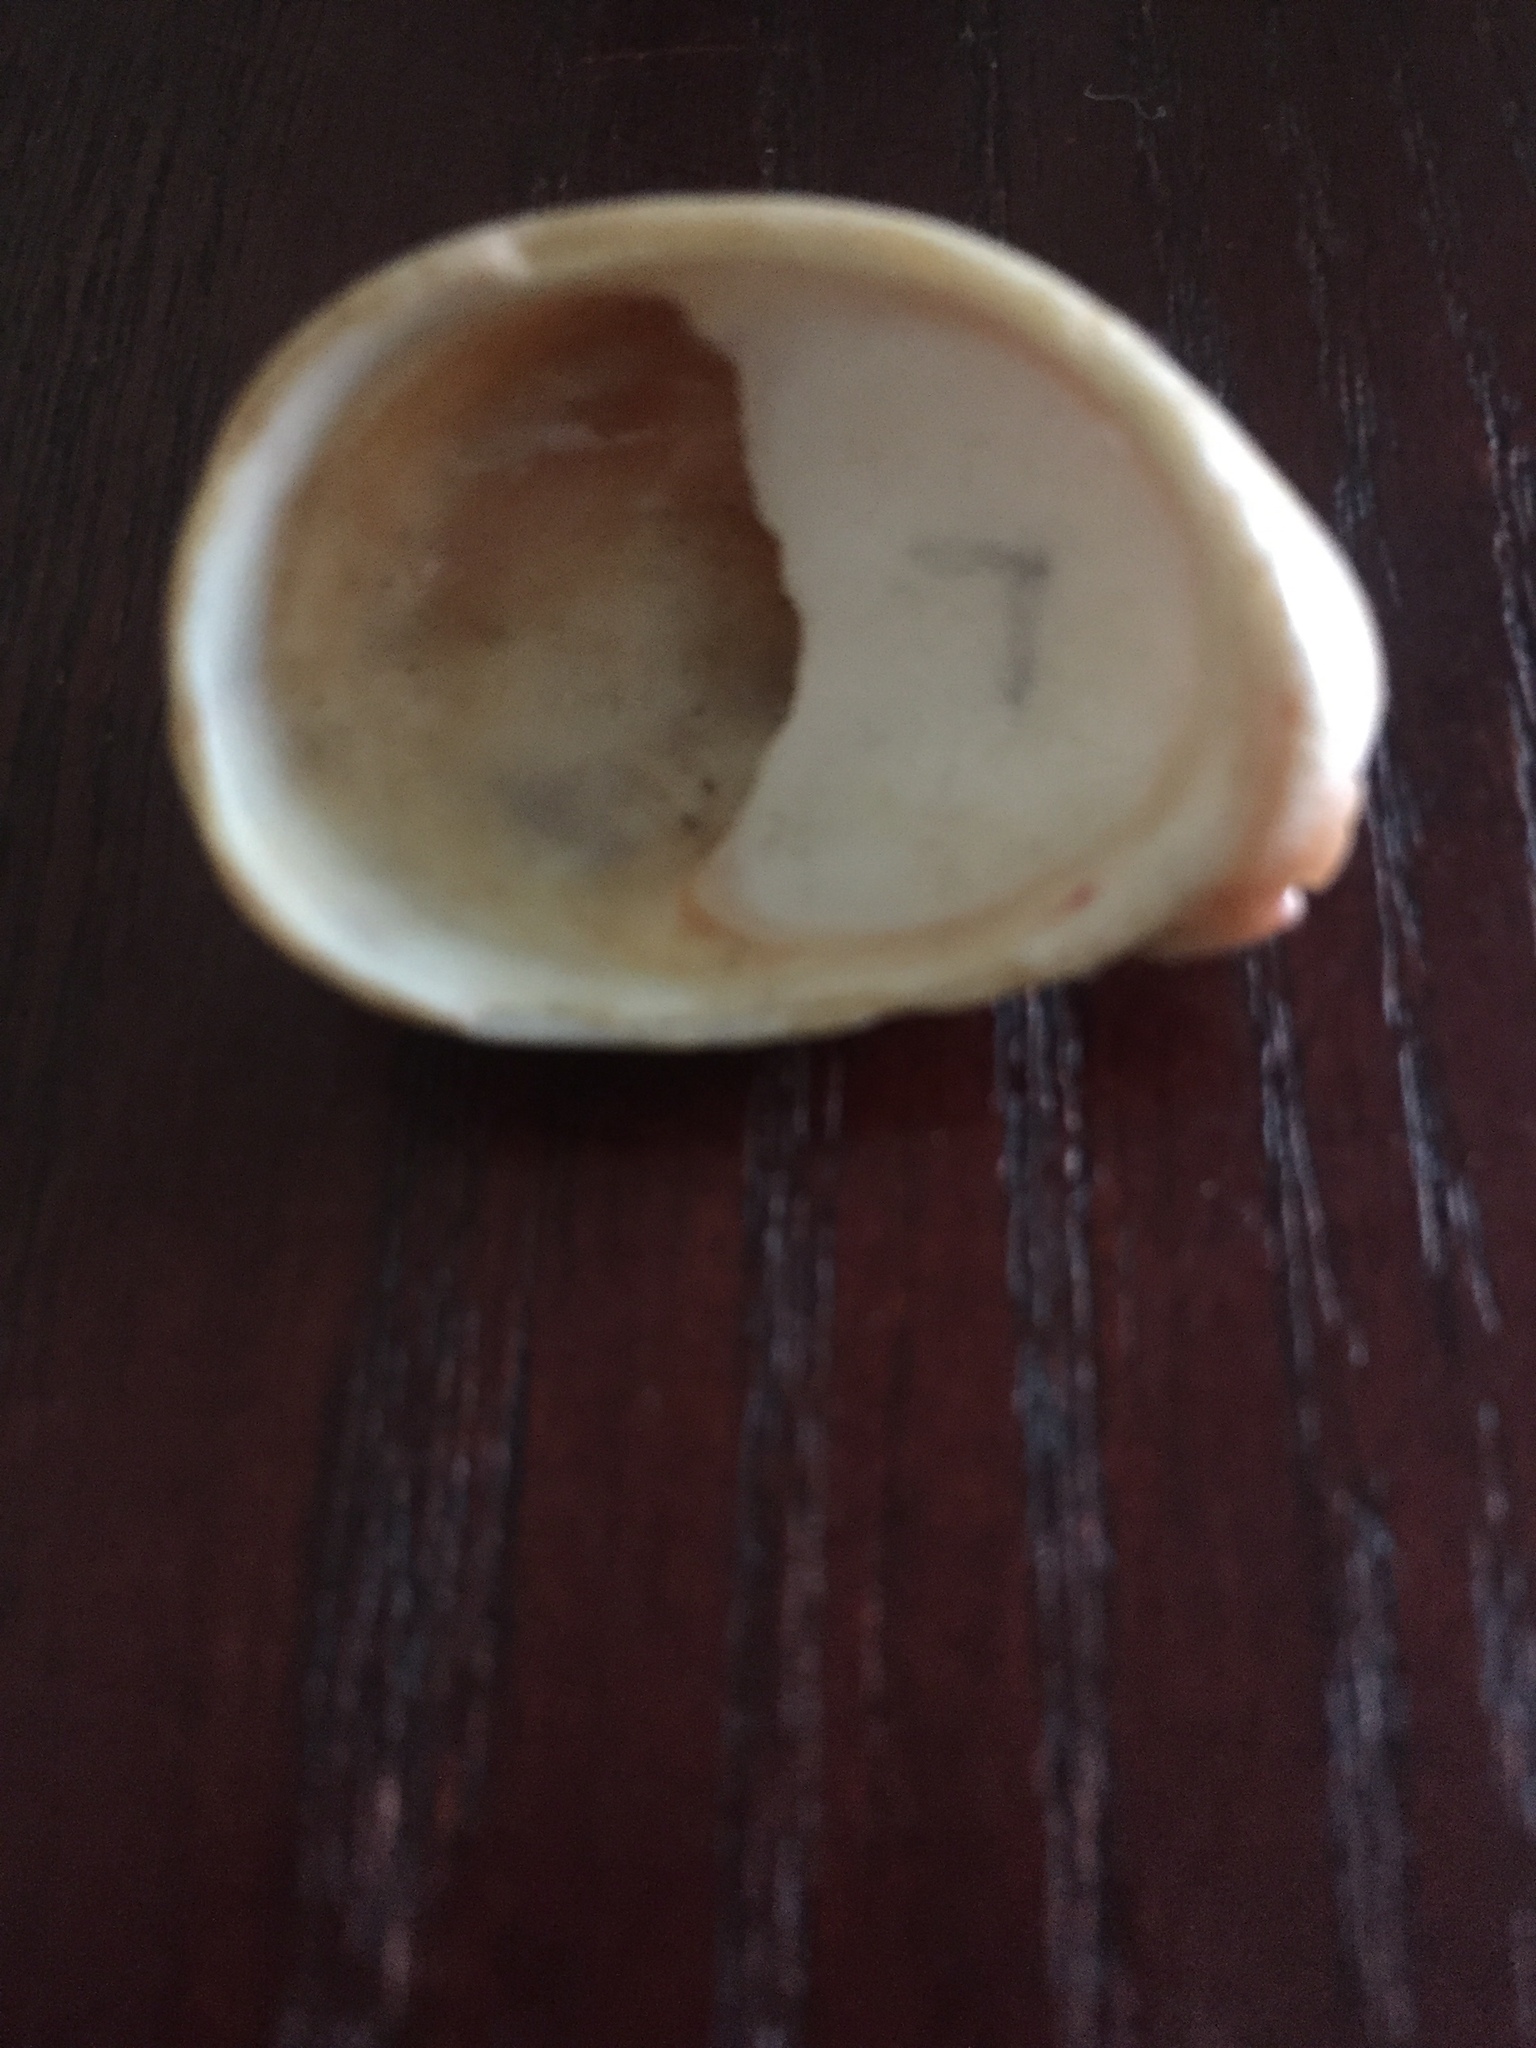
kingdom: Animalia
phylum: Mollusca
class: Gastropoda
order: Littorinimorpha
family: Calyptraeidae
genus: Crepidula
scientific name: Crepidula fornicata
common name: Slipper limpet
